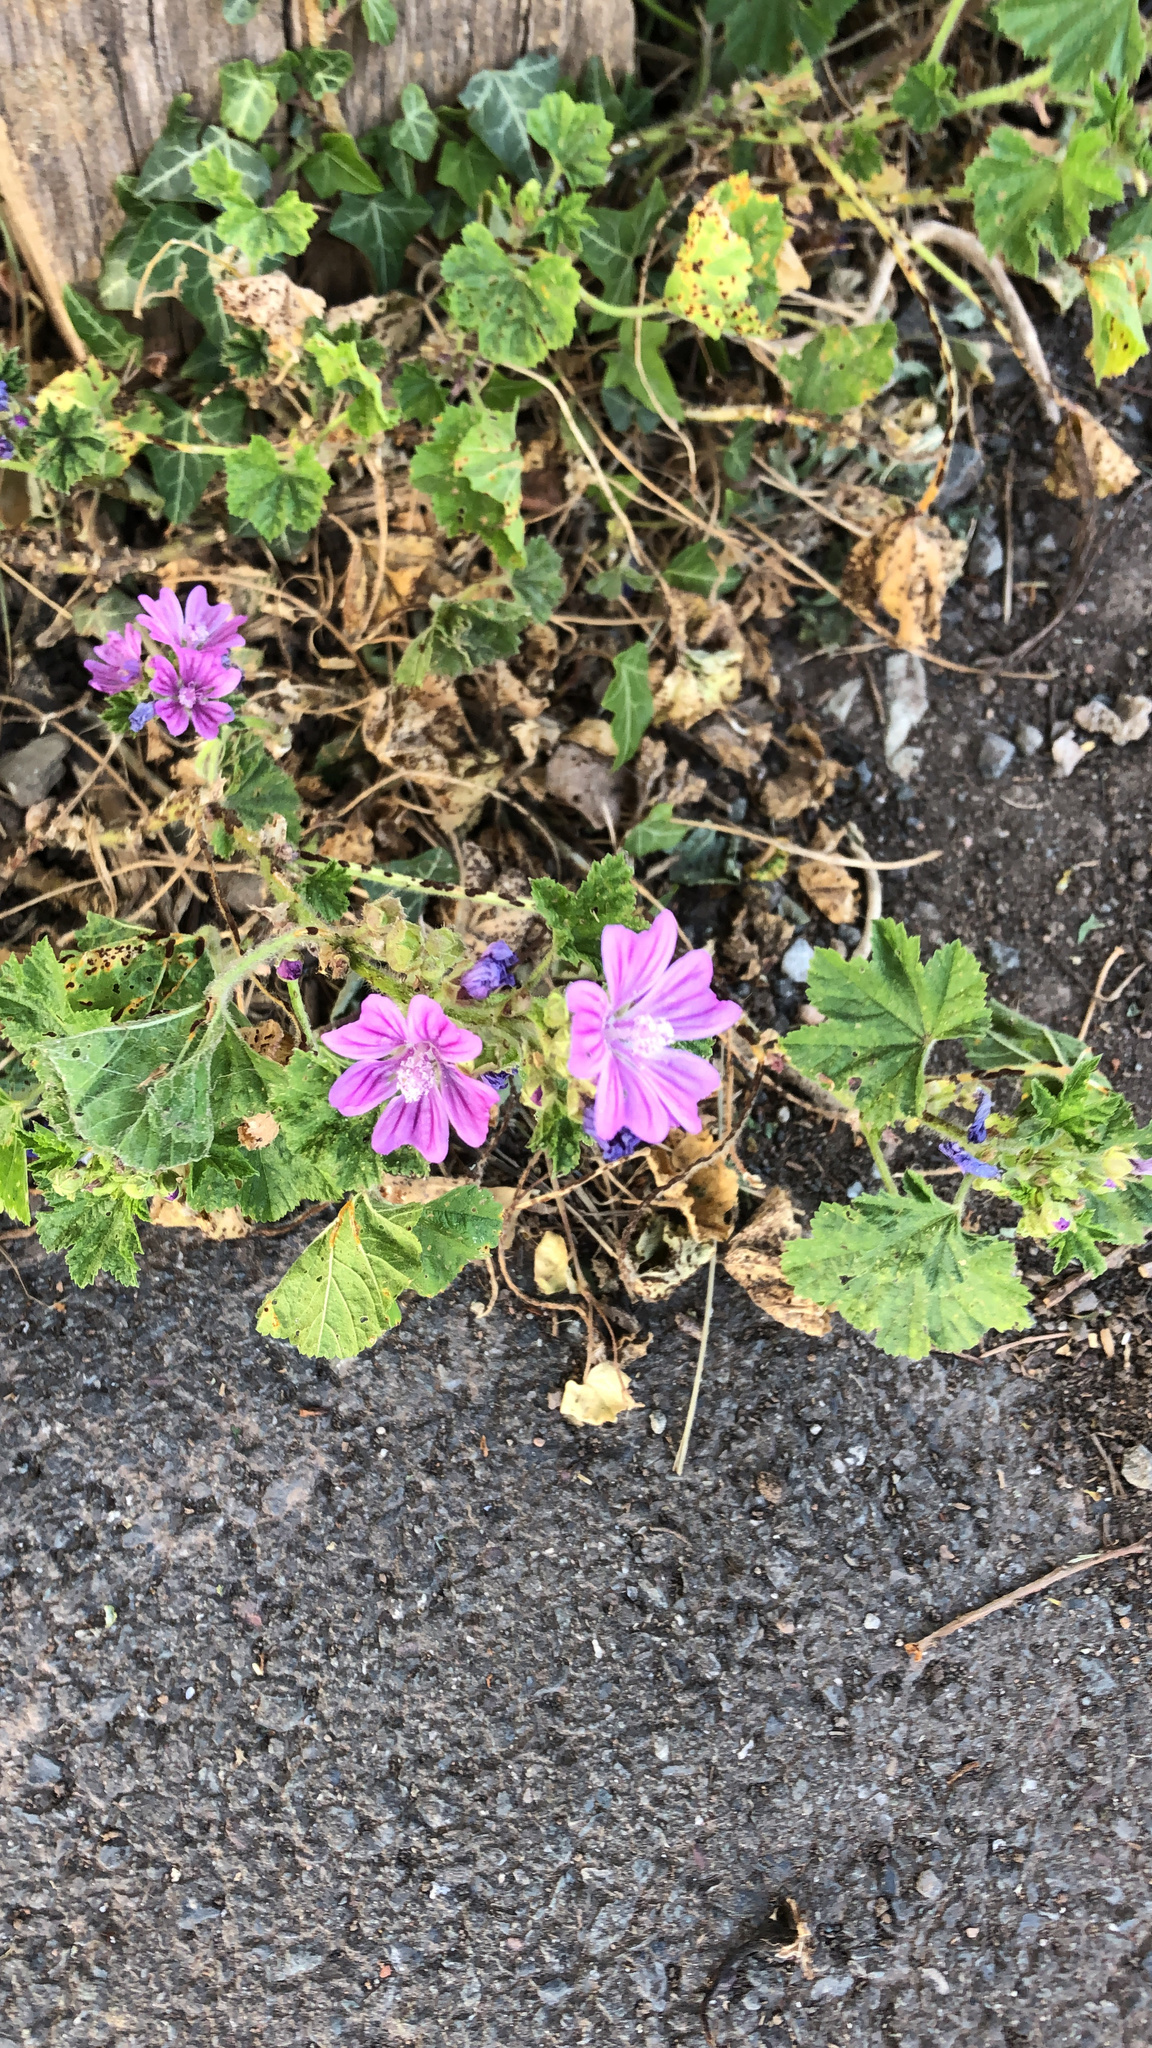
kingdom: Plantae
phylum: Tracheophyta
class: Magnoliopsida
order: Malvales
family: Malvaceae
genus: Malva
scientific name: Malva sylvestris
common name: Common mallow
